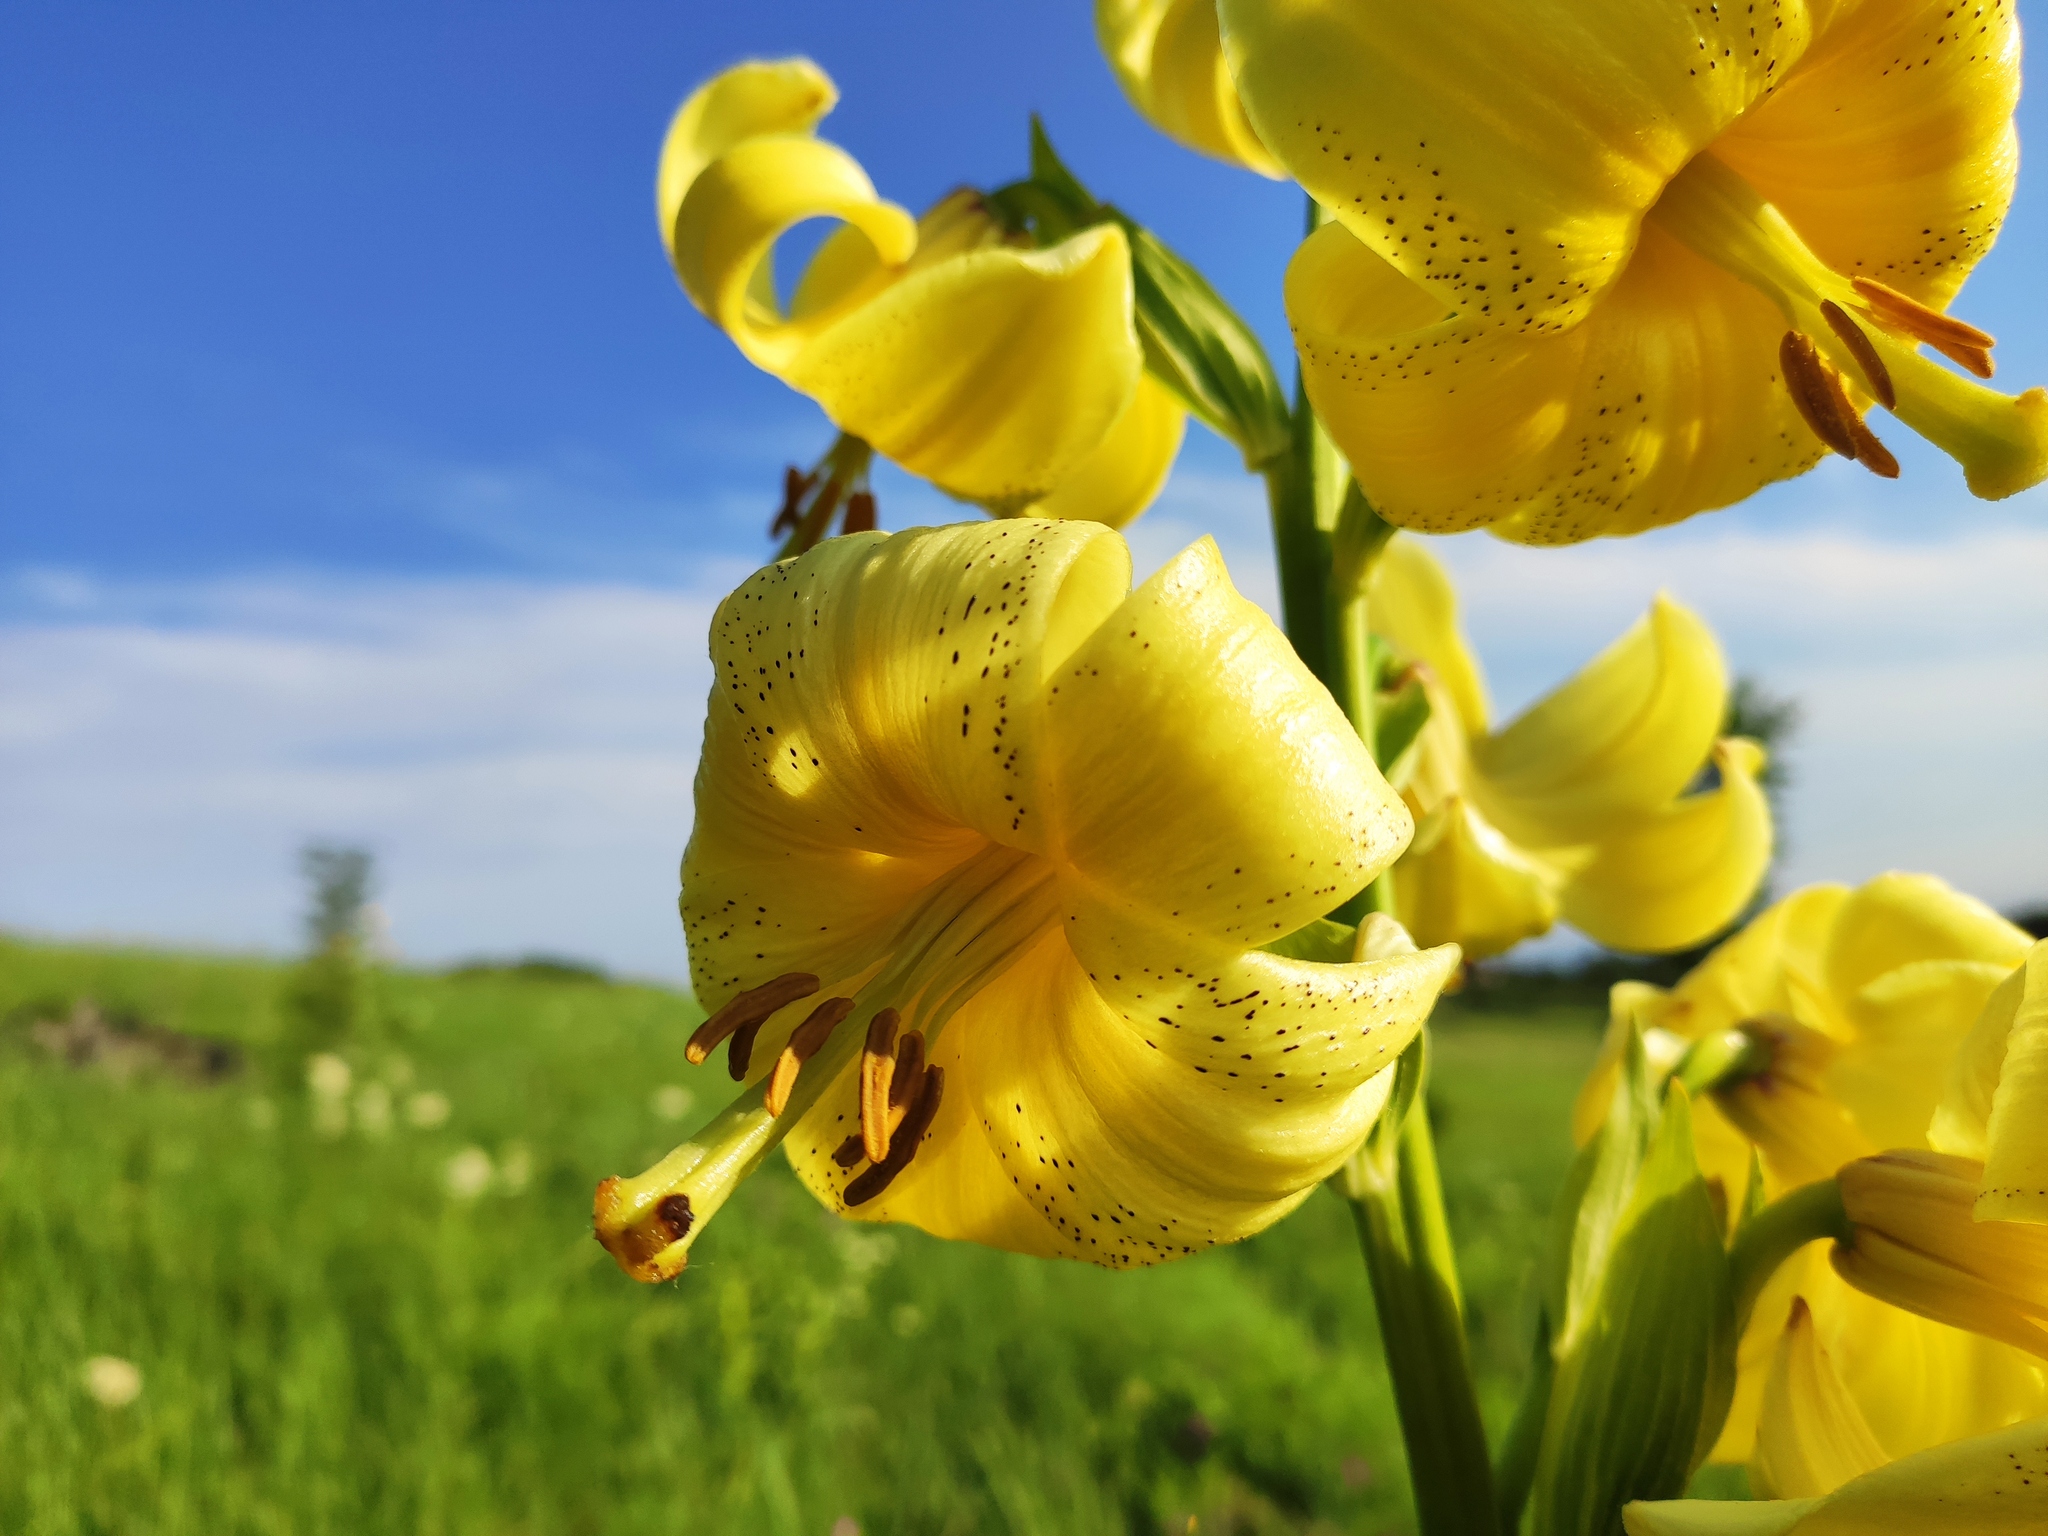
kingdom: Plantae
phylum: Tracheophyta
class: Liliopsida
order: Liliales
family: Liliaceae
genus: Lilium
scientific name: Lilium monadelphum
